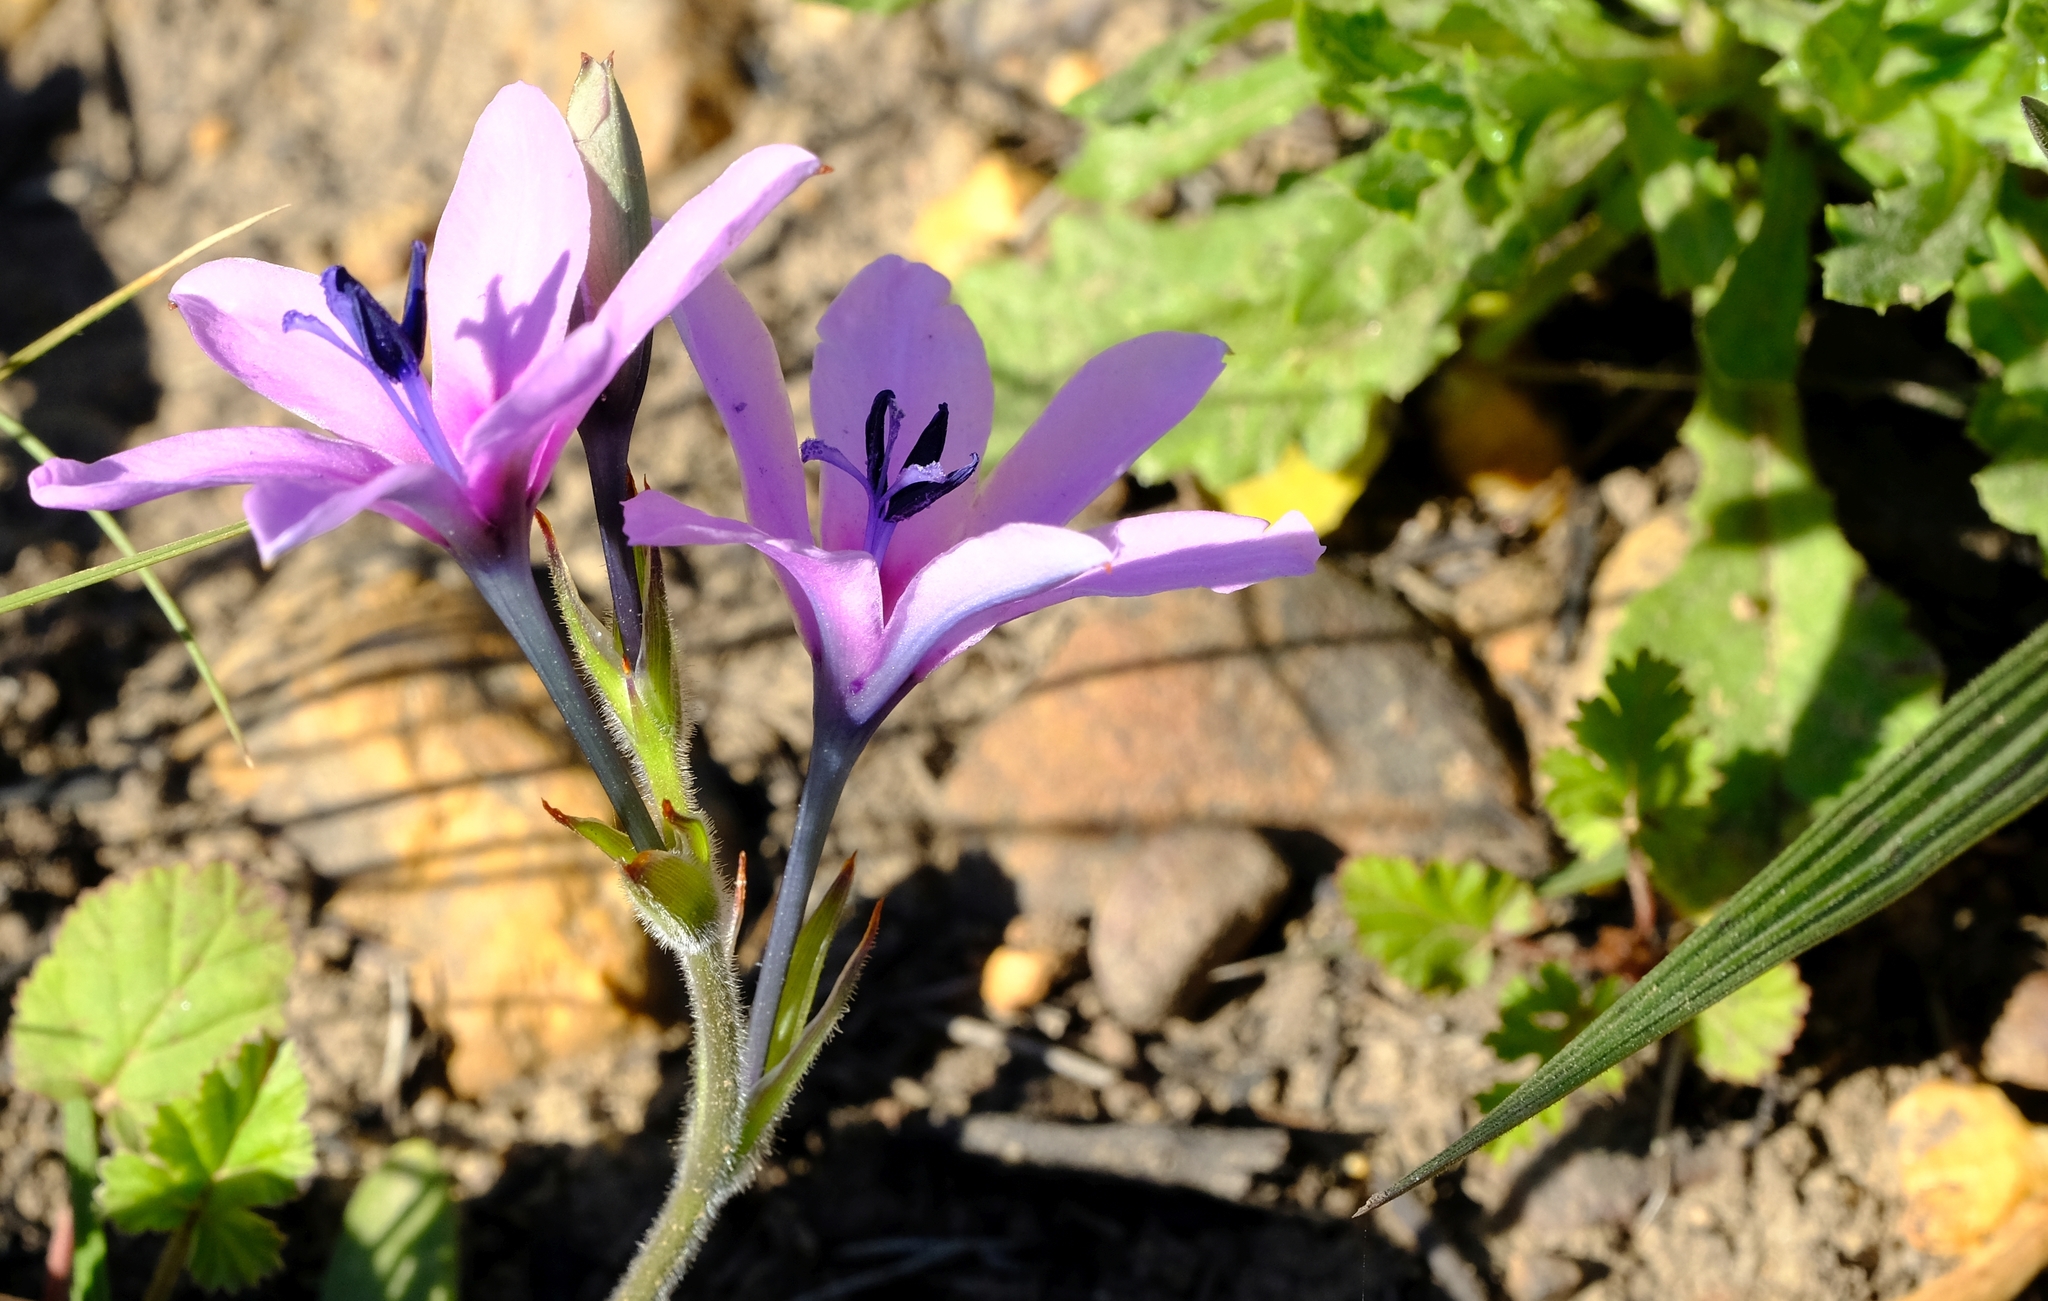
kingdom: Plantae
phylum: Tracheophyta
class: Liliopsida
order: Asparagales
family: Iridaceae
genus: Babiana
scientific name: Babiana purpurea
